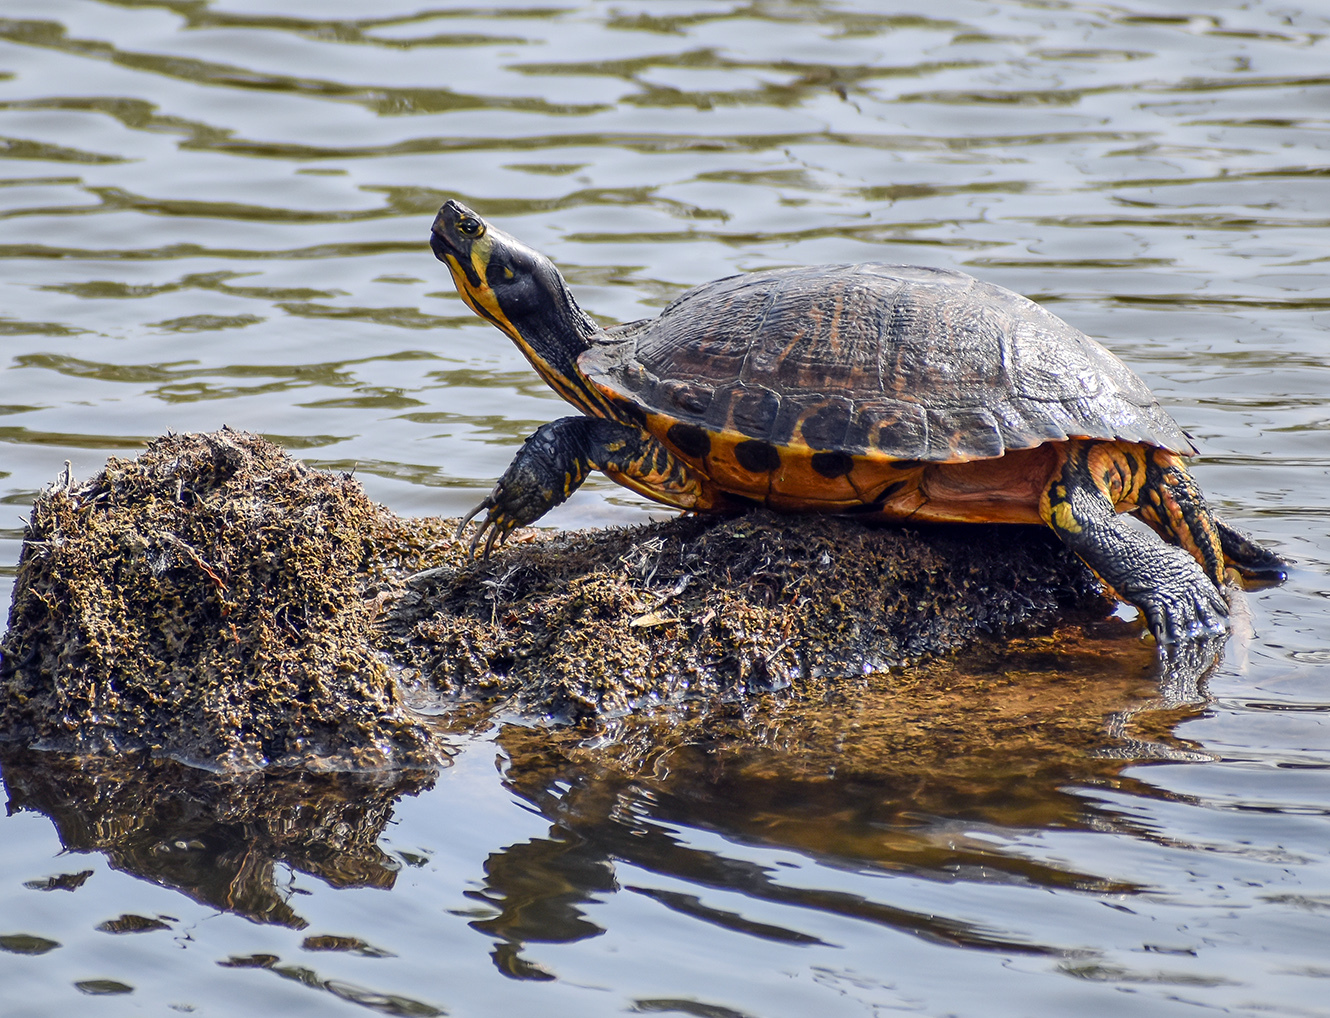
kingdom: Animalia
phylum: Chordata
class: Testudines
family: Emydidae
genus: Trachemys
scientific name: Trachemys scripta
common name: Slider
